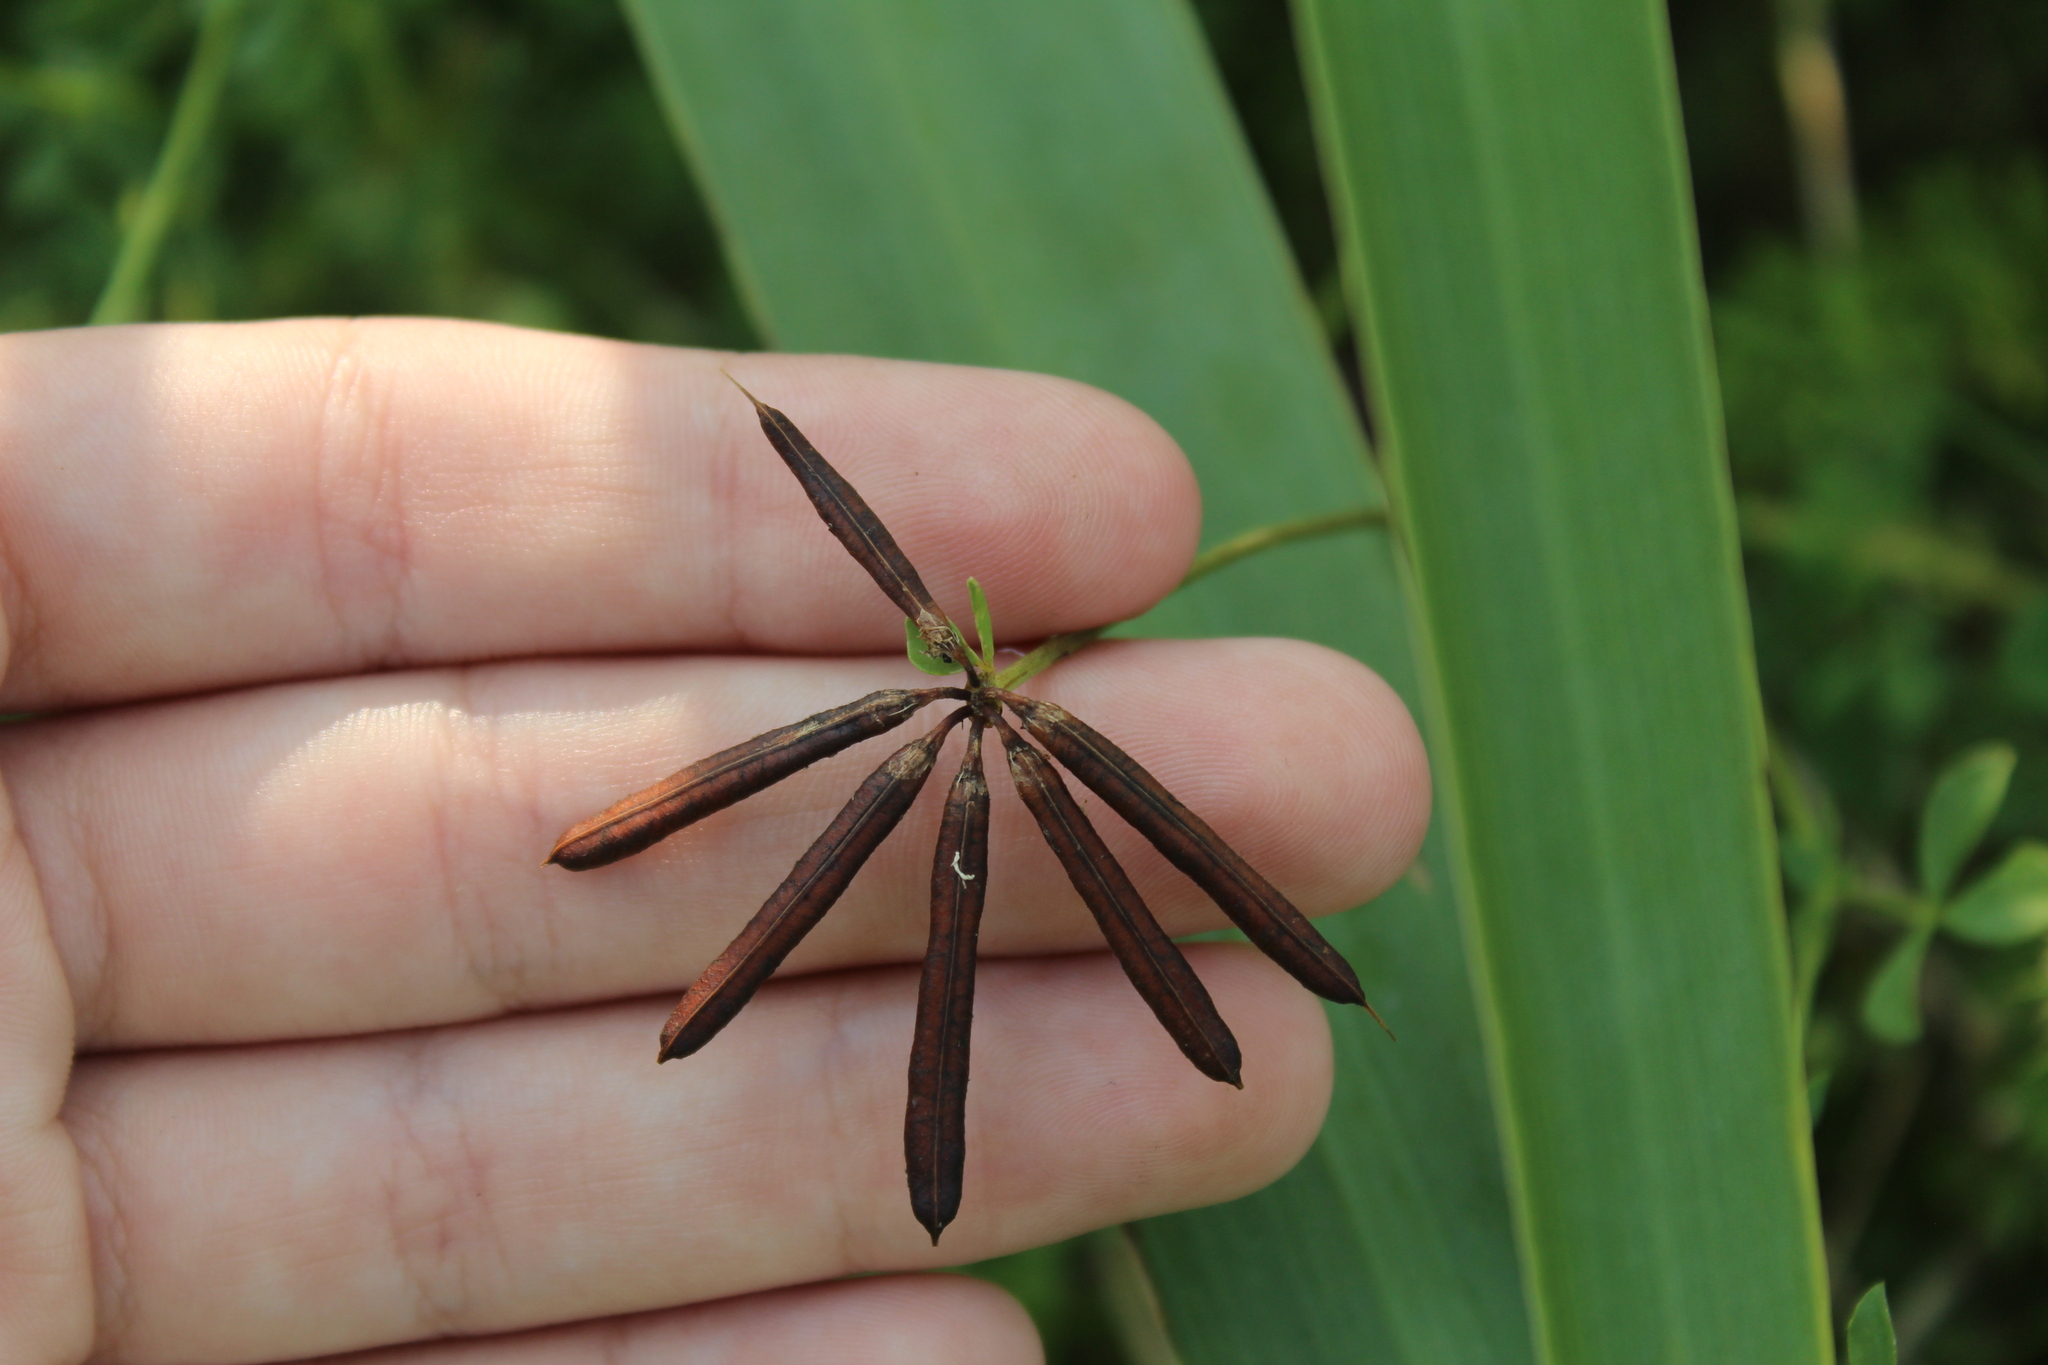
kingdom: Plantae
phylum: Tracheophyta
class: Magnoliopsida
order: Fabales
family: Fabaceae
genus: Lotus
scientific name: Lotus corniculatus
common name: Common bird's-foot-trefoil
